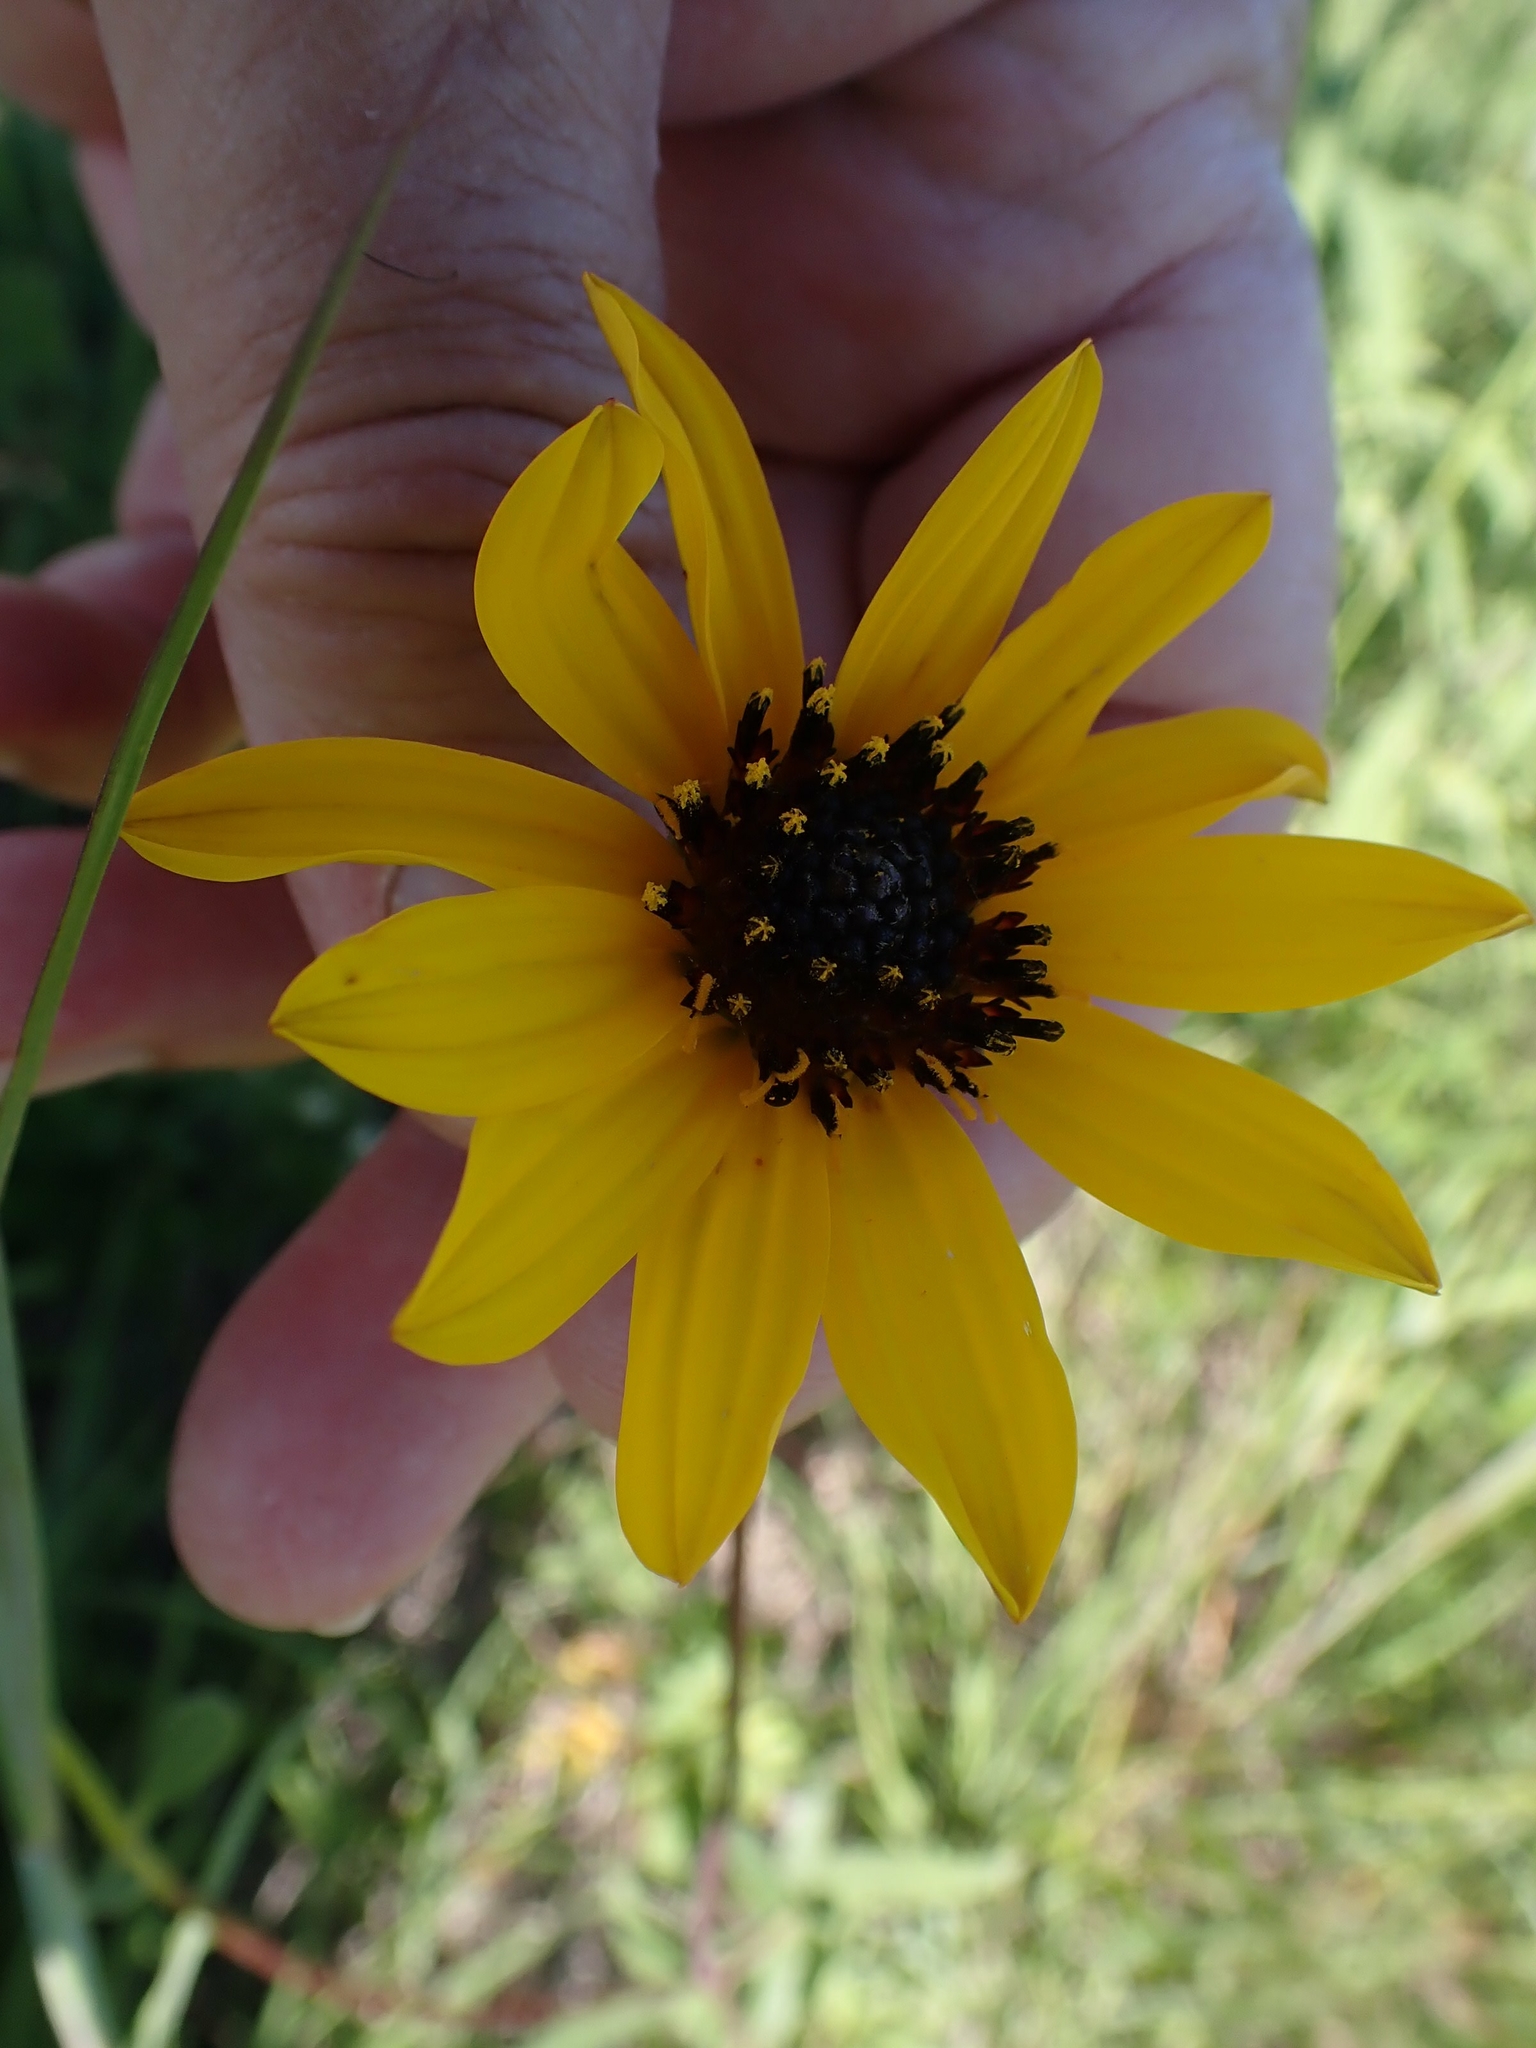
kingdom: Plantae
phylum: Tracheophyta
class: Magnoliopsida
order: Asterales
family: Asteraceae
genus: Helianthus
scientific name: Helianthus pauciflorus
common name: Stiff sunflower
